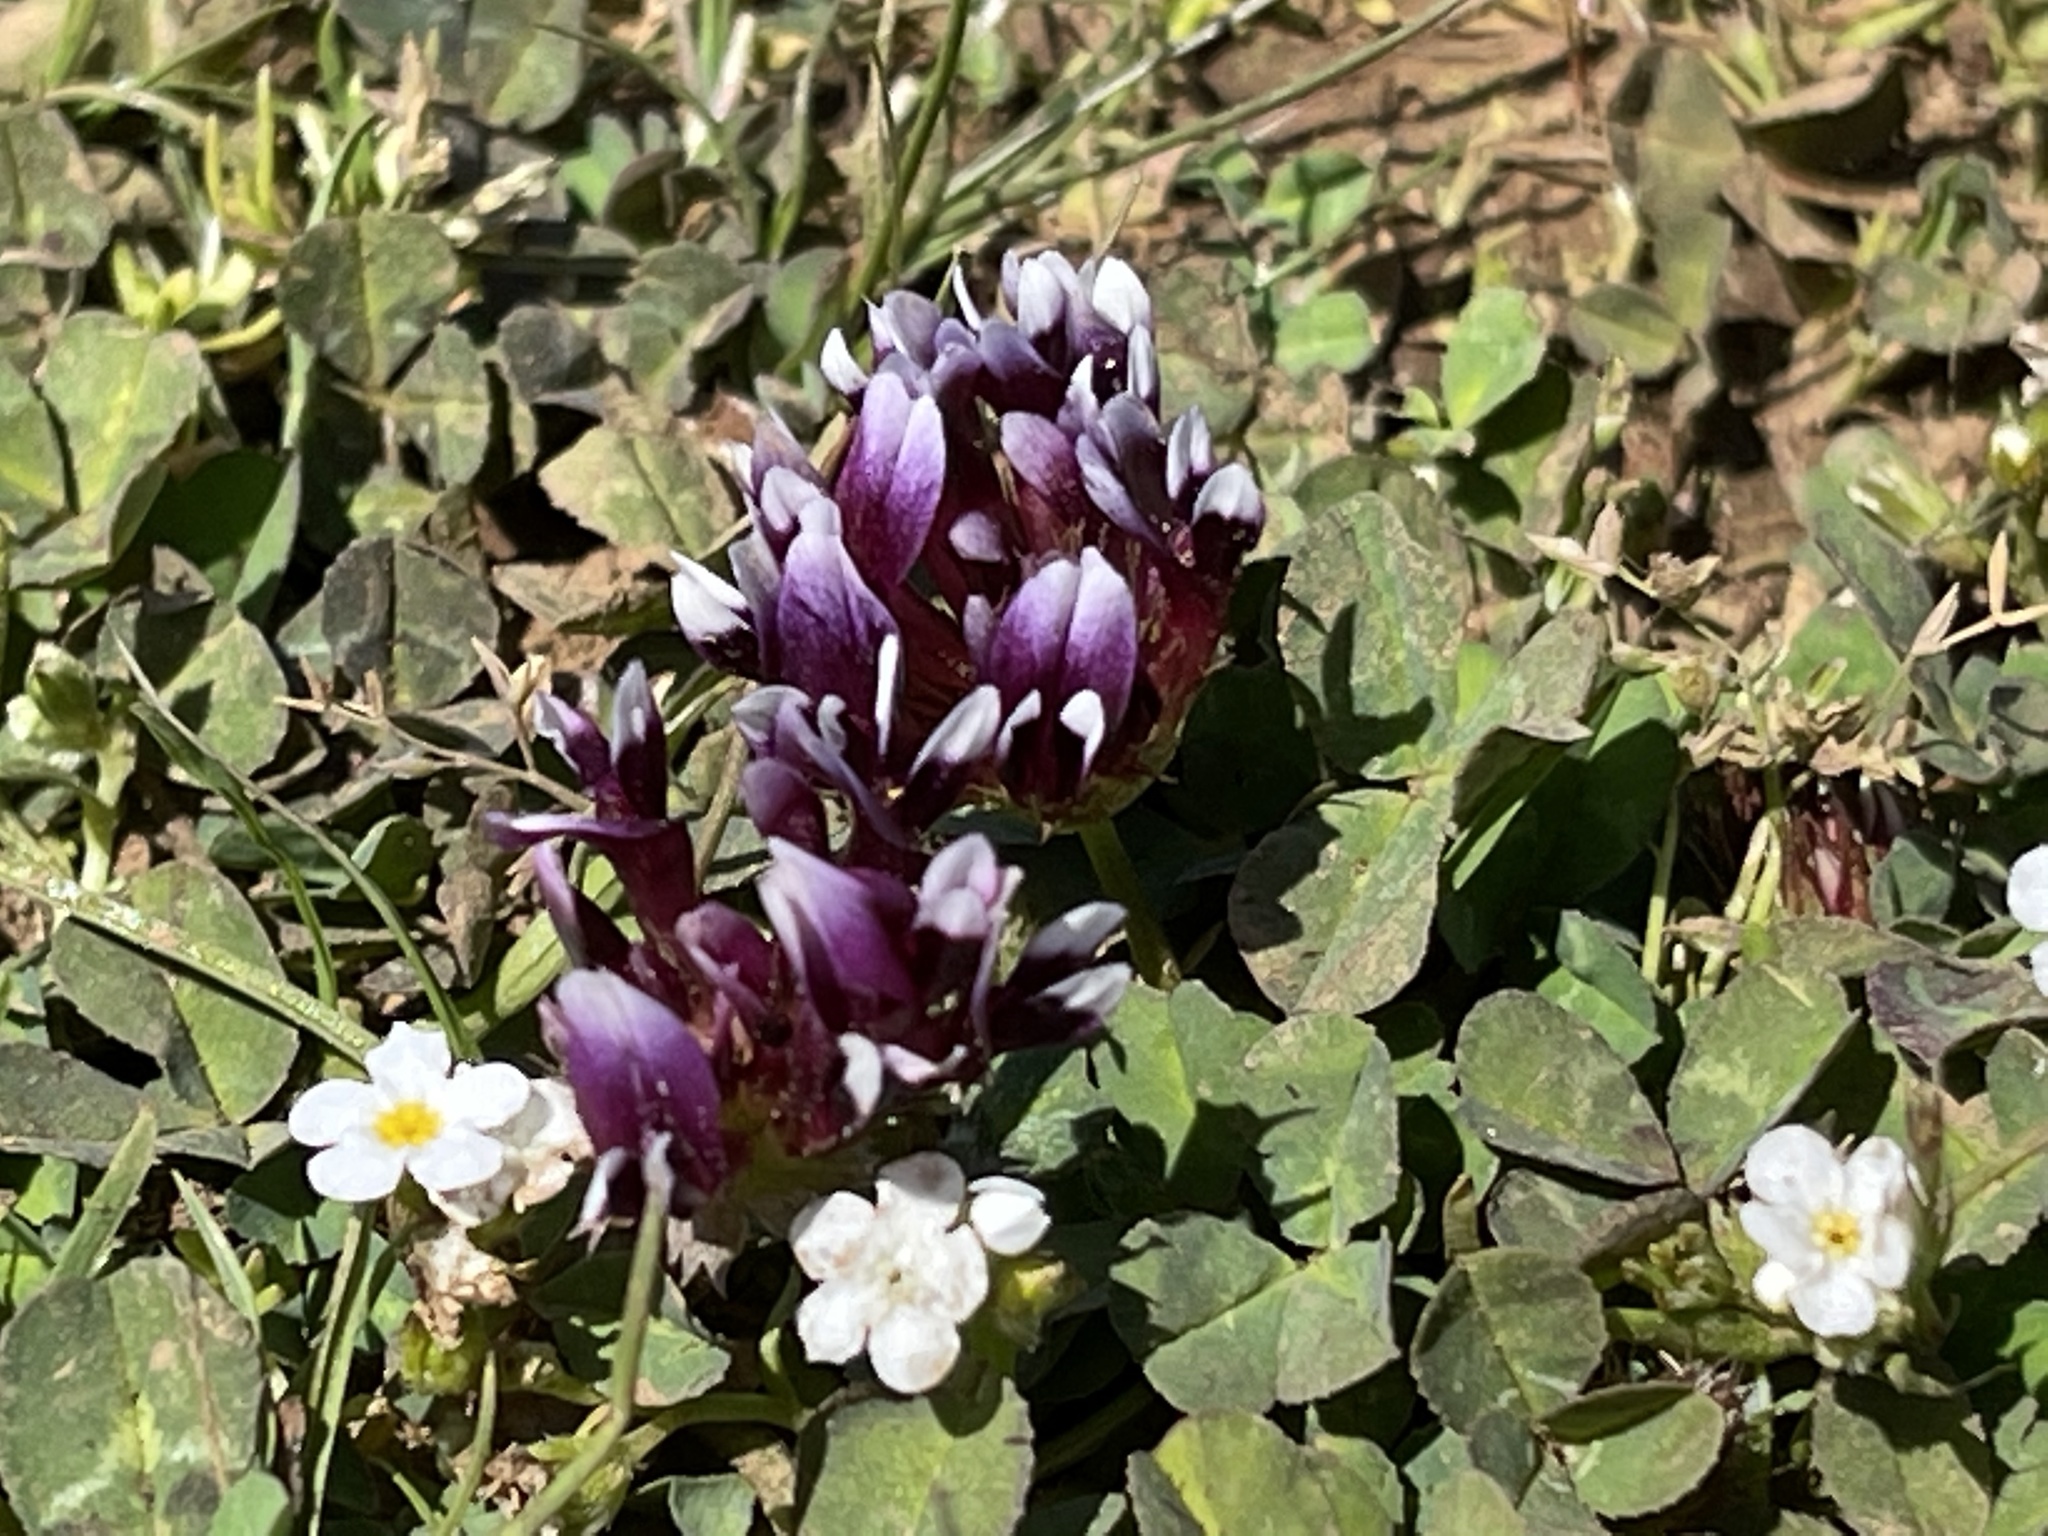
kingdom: Plantae
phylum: Tracheophyta
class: Magnoliopsida
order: Fabales
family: Fabaceae
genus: Trifolium
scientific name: Trifolium variegatum
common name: Whitetip clover
